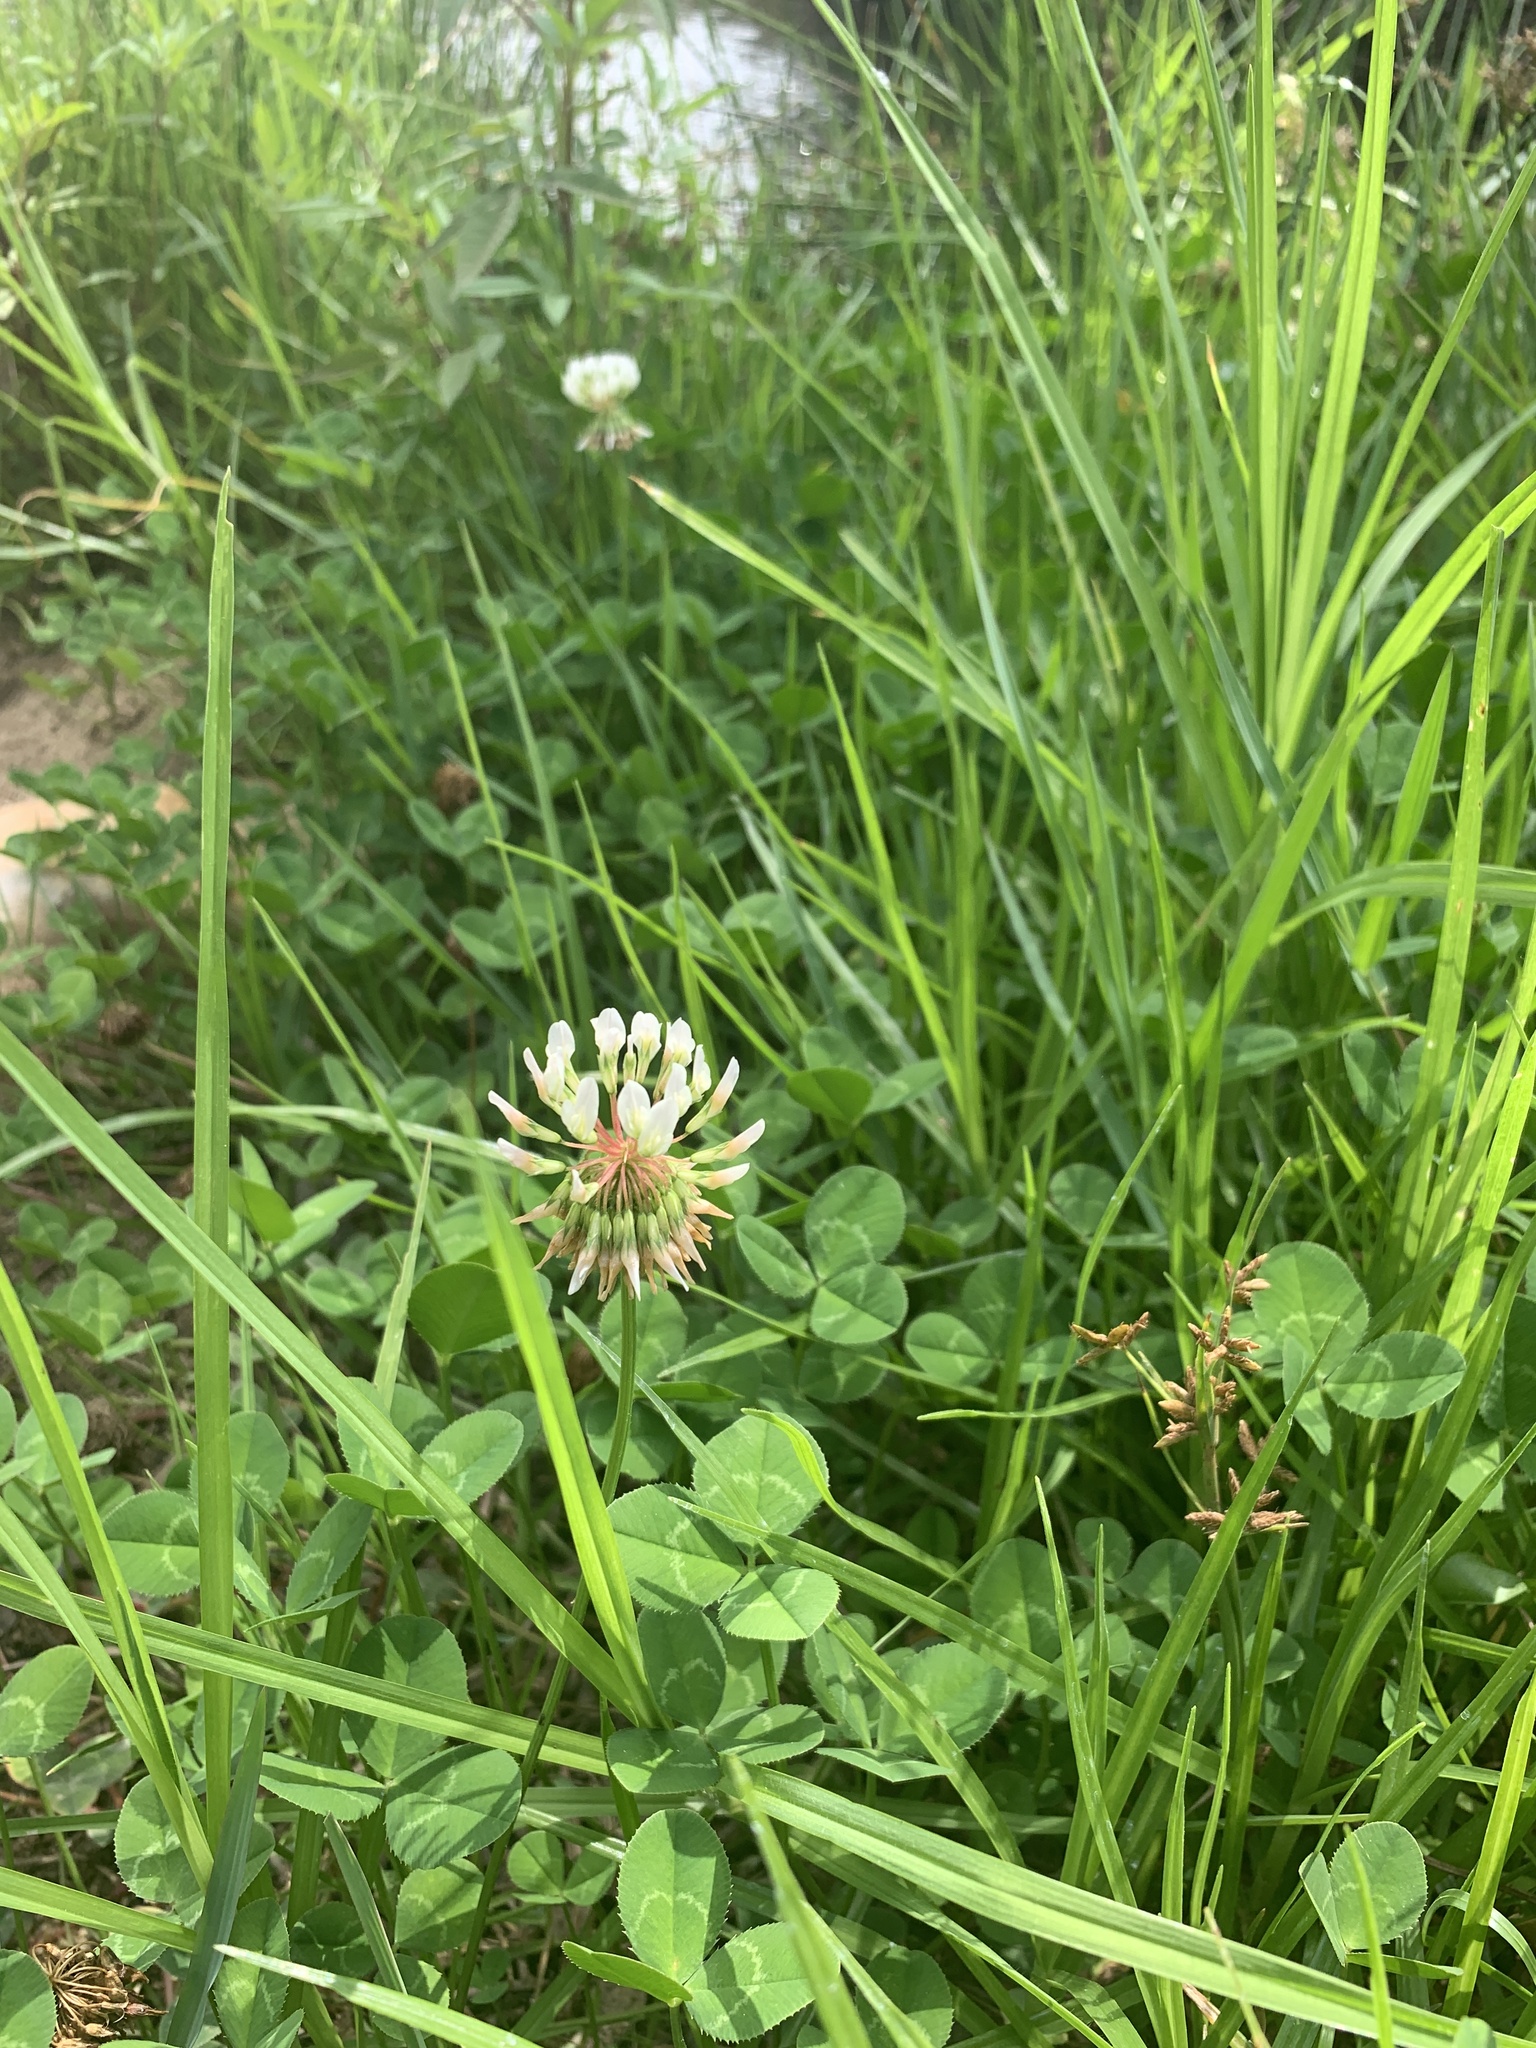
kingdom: Plantae
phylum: Tracheophyta
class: Magnoliopsida
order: Fabales
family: Fabaceae
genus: Trifolium
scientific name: Trifolium repens
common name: White clover
